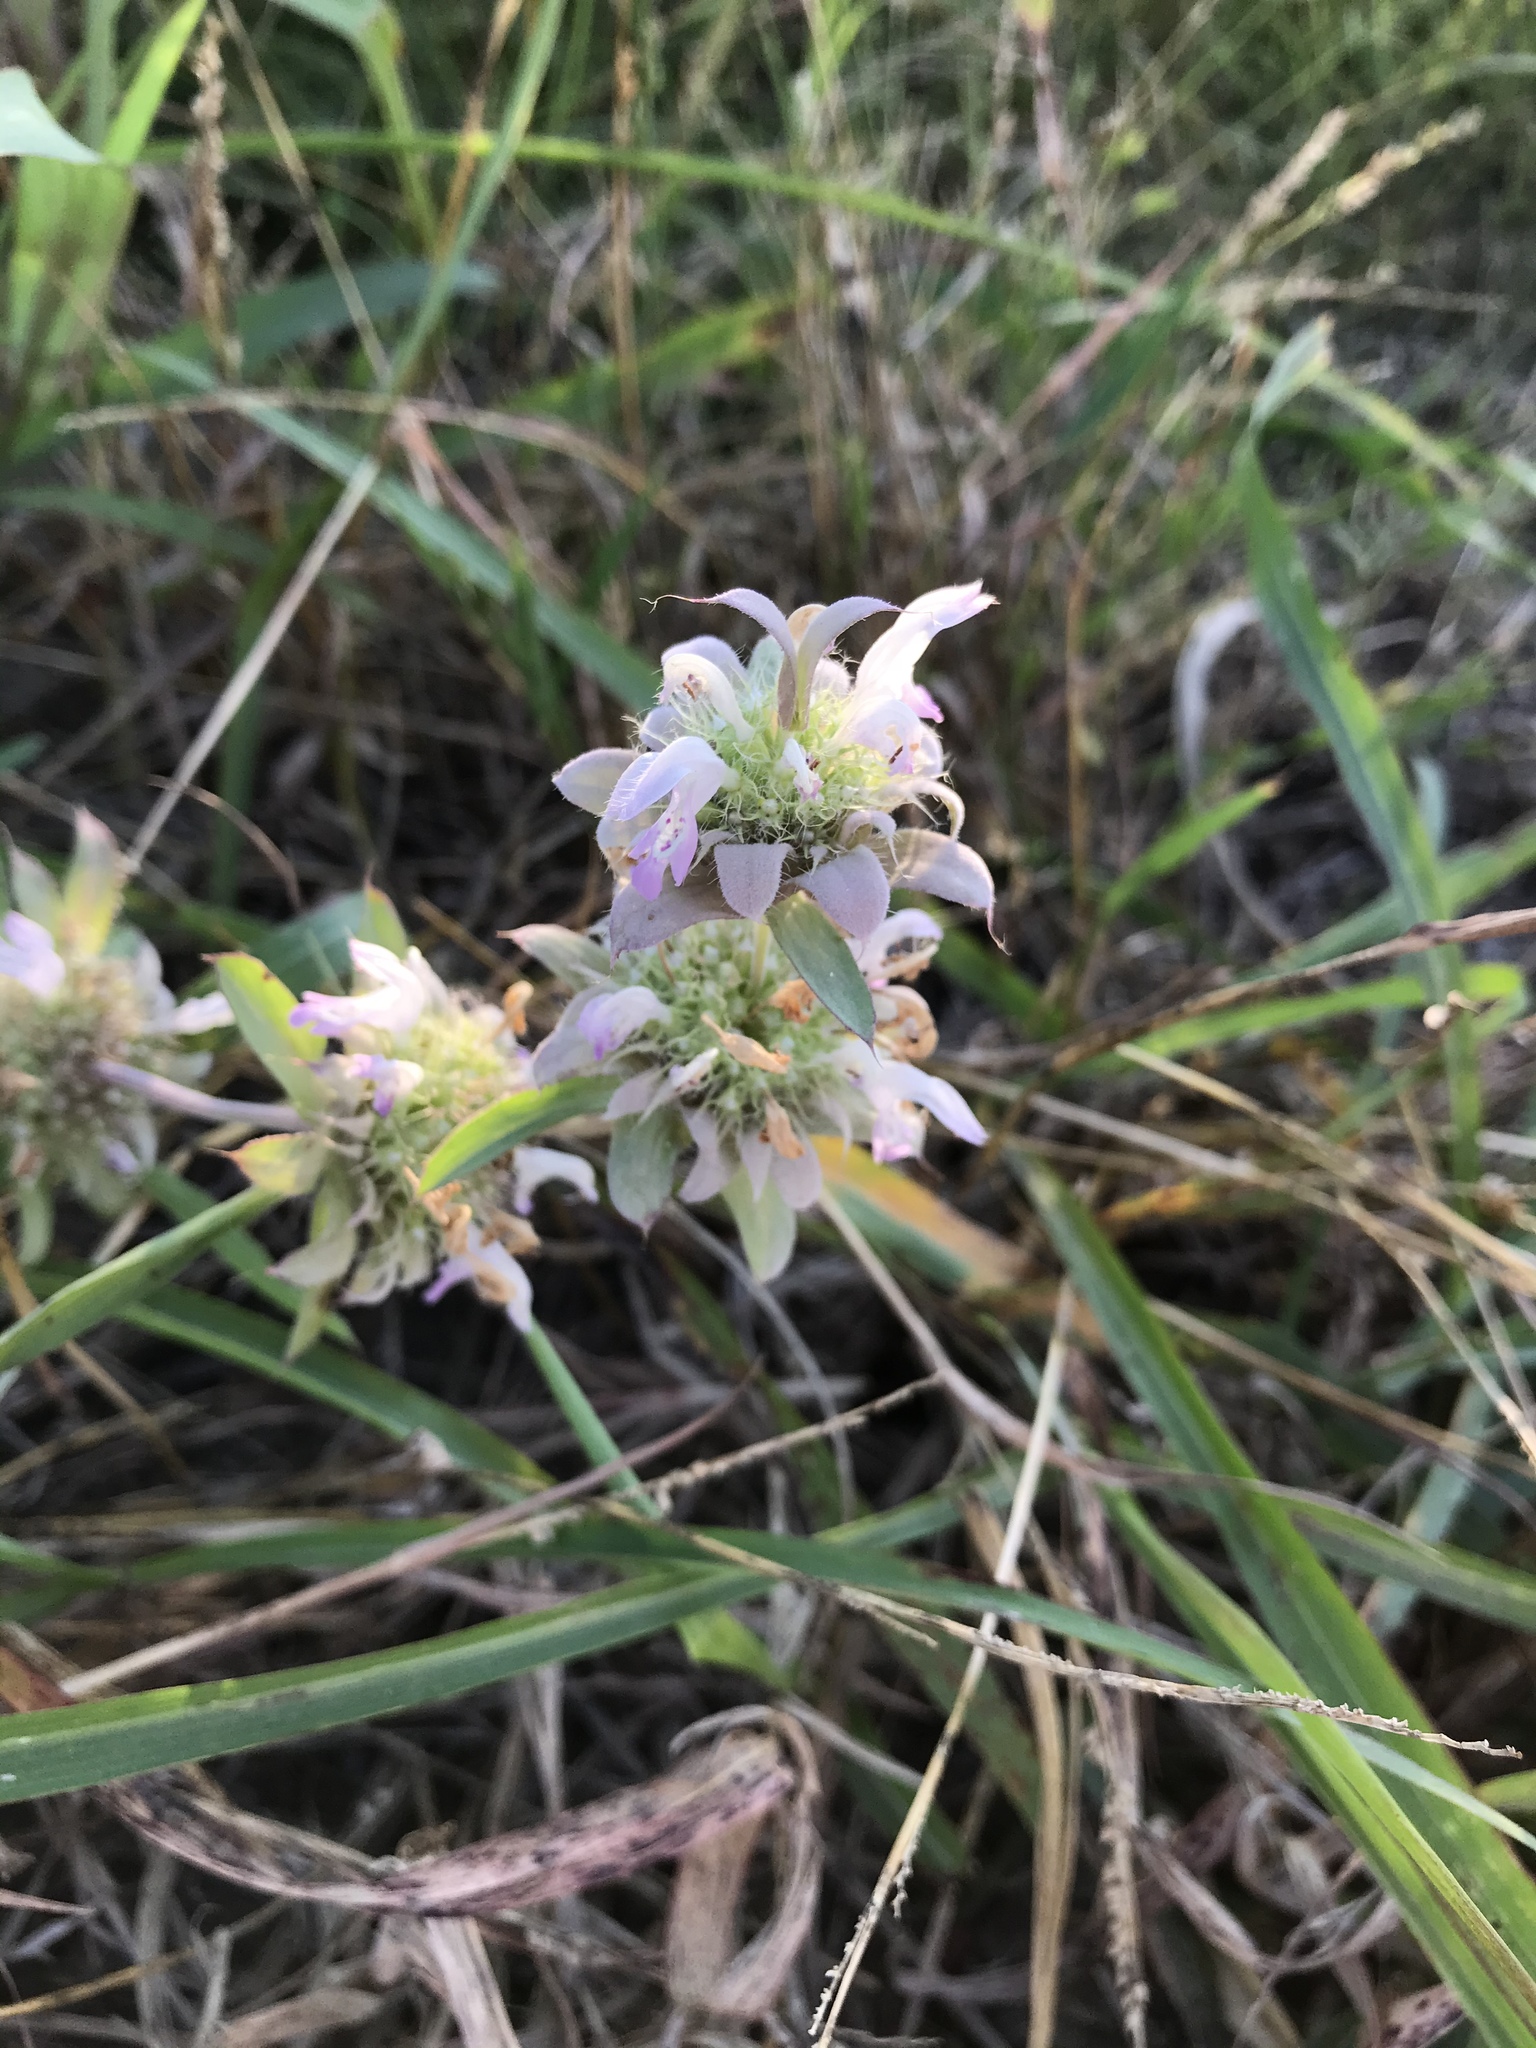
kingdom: Plantae
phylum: Tracheophyta
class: Magnoliopsida
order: Lamiales
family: Lamiaceae
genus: Monarda
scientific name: Monarda citriodora
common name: Lemon beebalm
